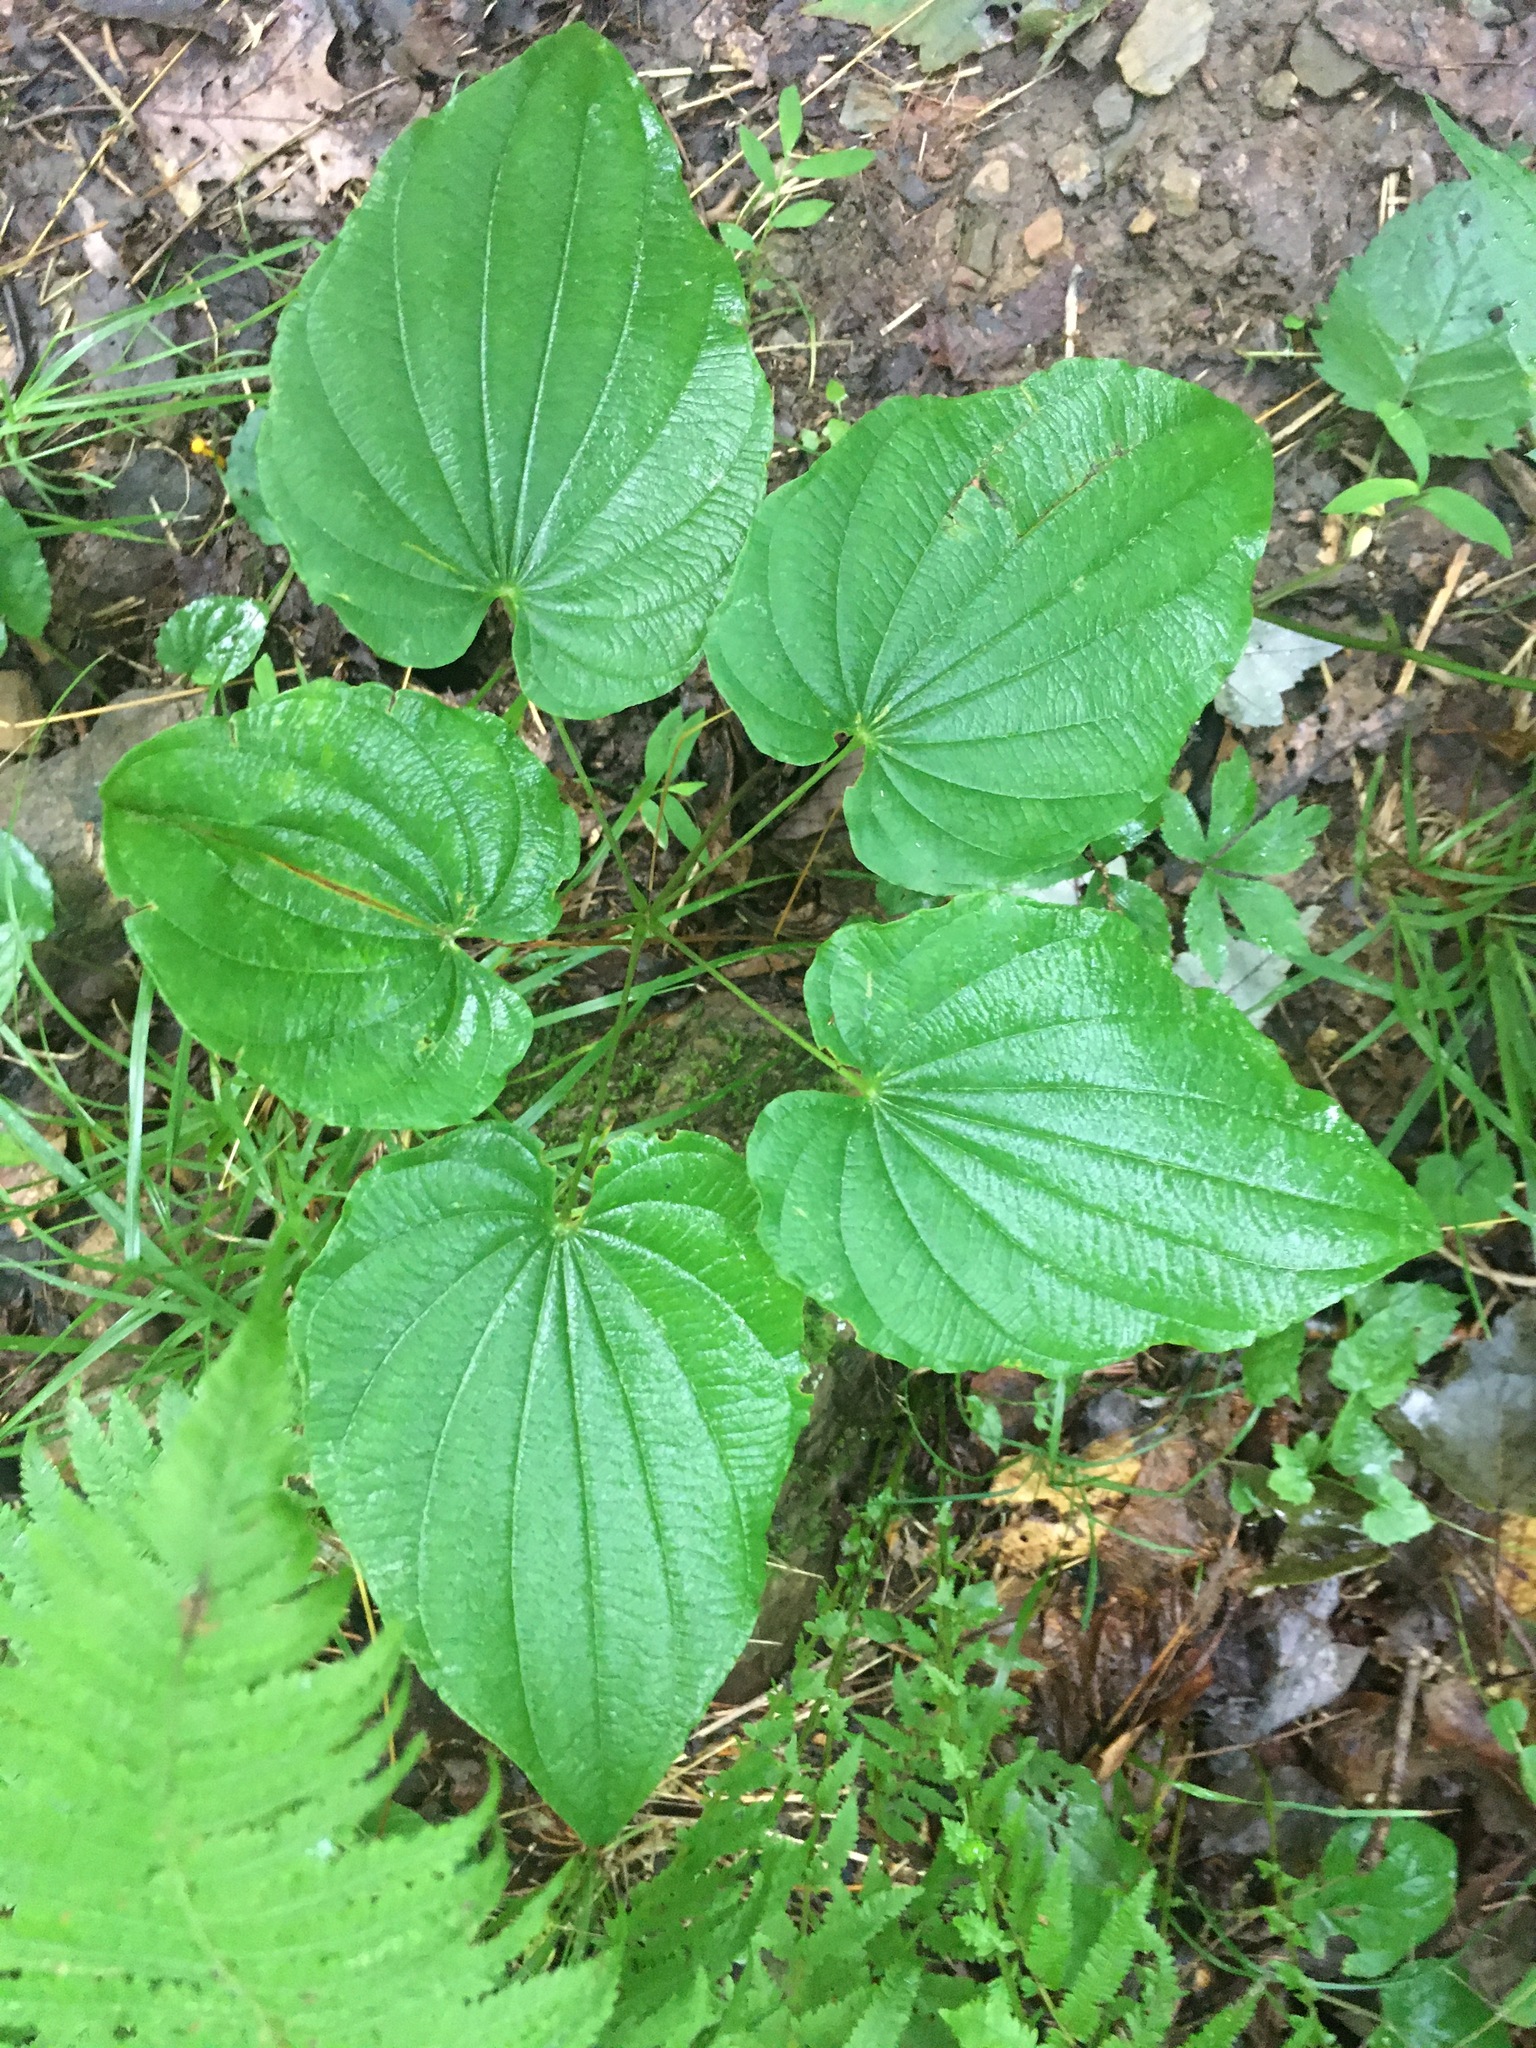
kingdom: Plantae
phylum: Tracheophyta
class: Liliopsida
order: Dioscoreales
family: Dioscoreaceae
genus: Dioscorea
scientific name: Dioscorea villosa
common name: Wild yam
